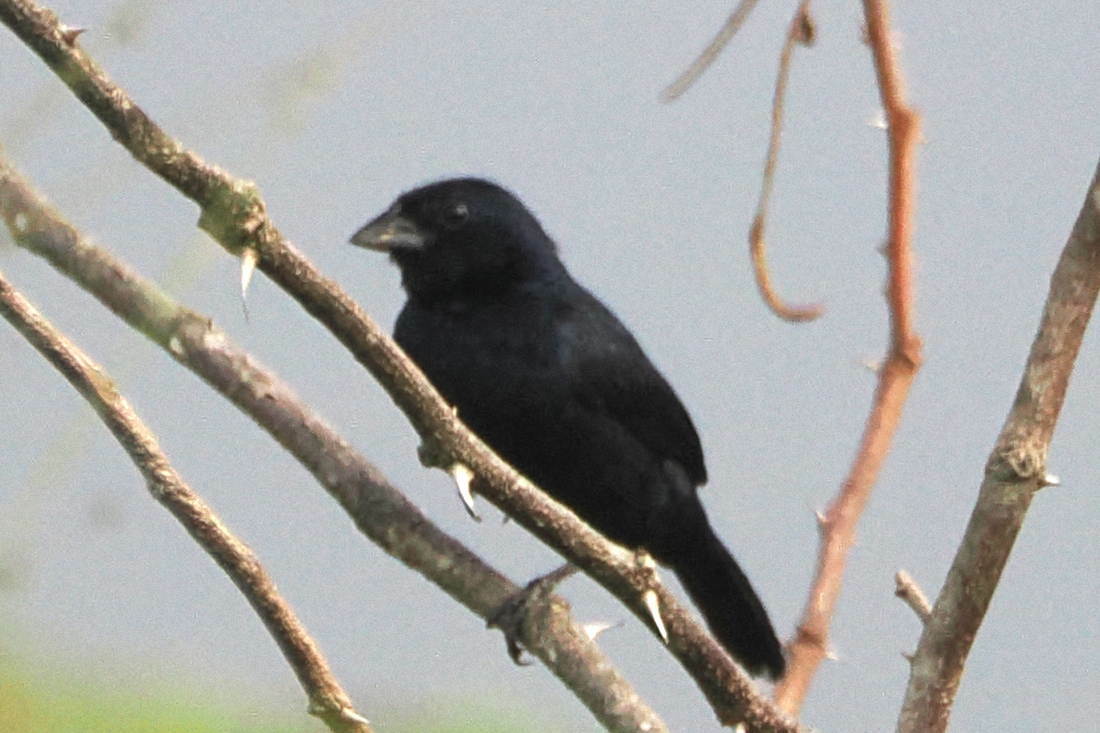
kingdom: Animalia
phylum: Chordata
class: Aves
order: Passeriformes
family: Thraupidae
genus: Volatinia
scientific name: Volatinia jacarina
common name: Blue-black grassquit
